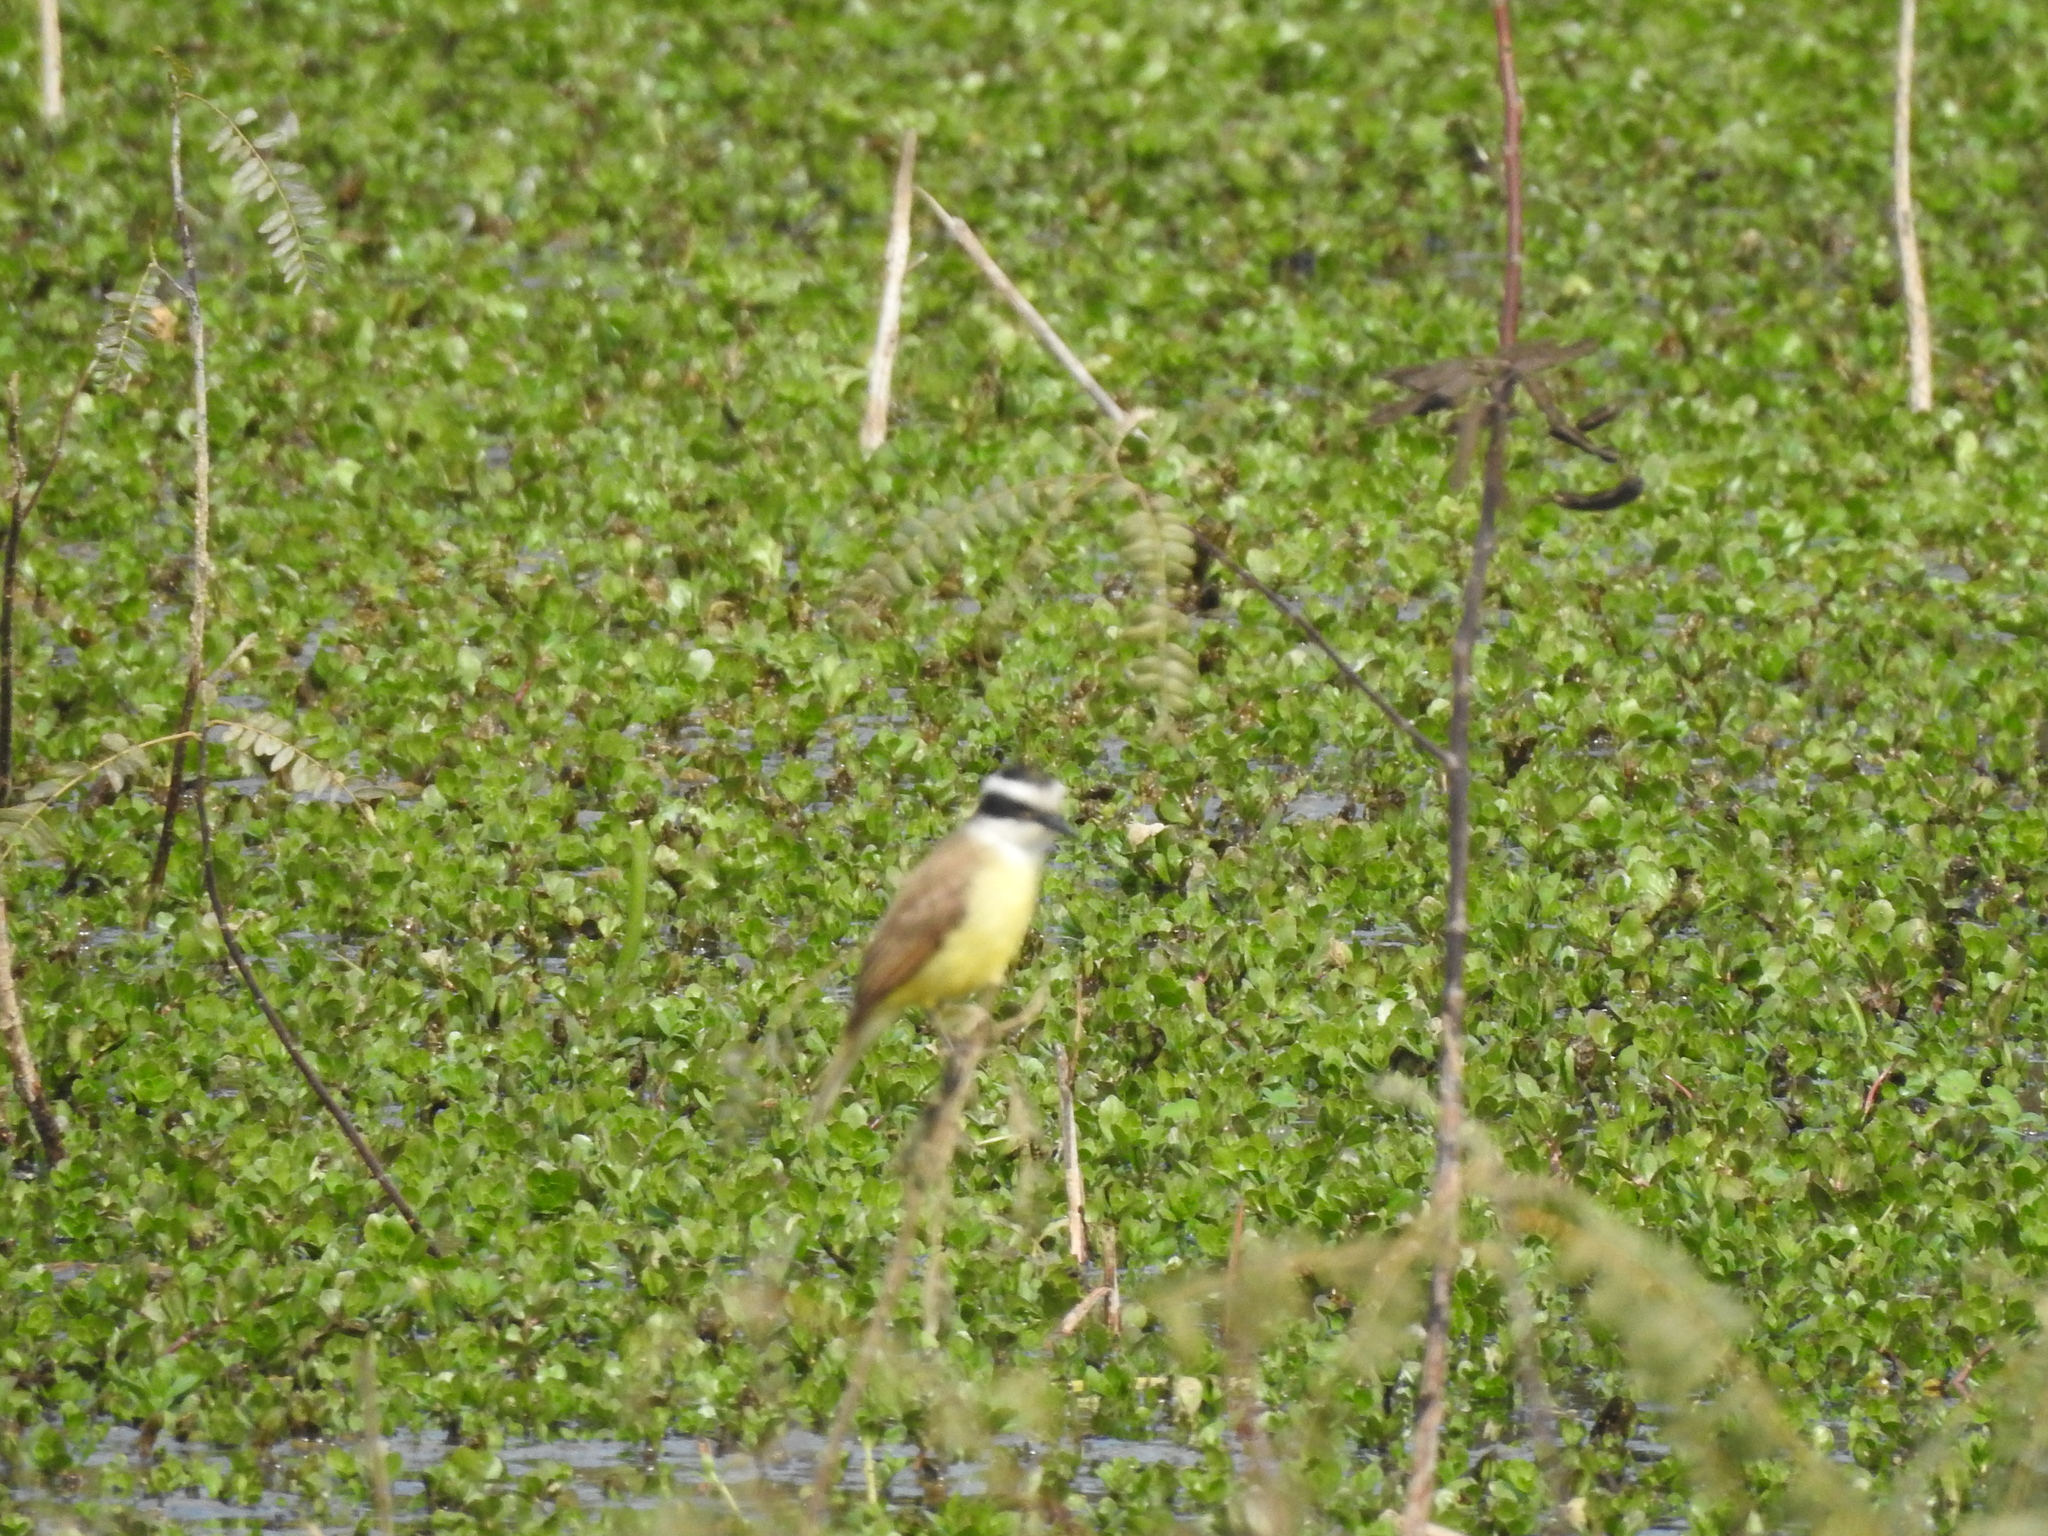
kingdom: Animalia
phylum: Chordata
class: Aves
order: Passeriformes
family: Tyrannidae
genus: Pitangus
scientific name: Pitangus sulphuratus
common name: Great kiskadee
